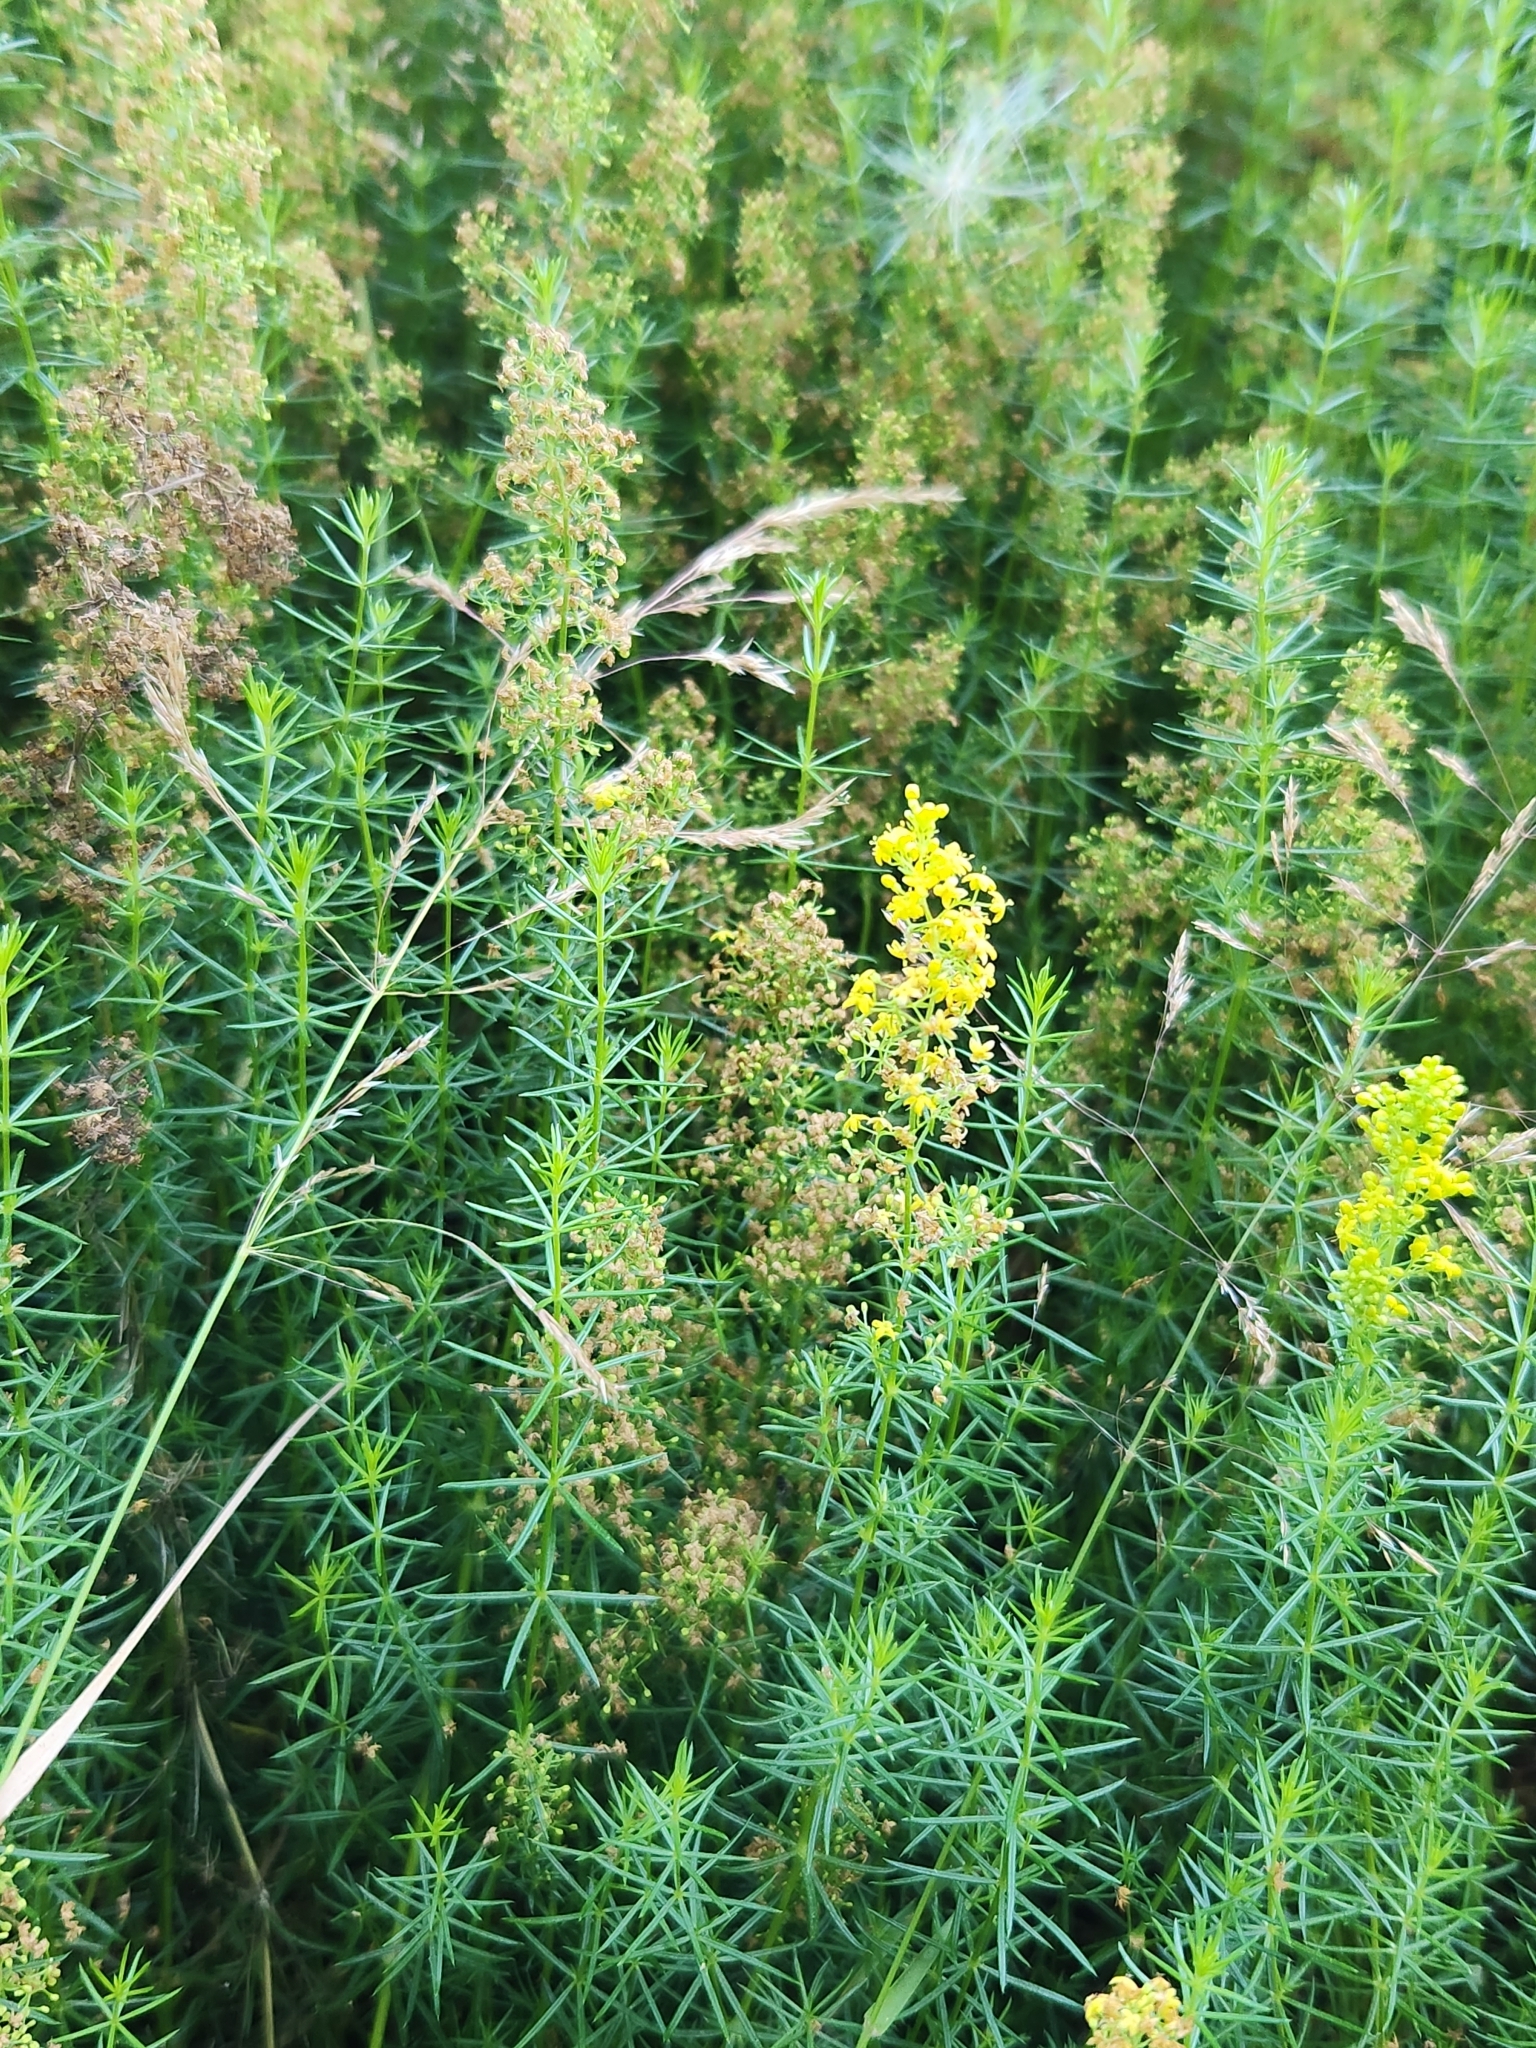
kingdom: Plantae
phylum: Tracheophyta
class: Magnoliopsida
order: Gentianales
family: Rubiaceae
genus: Galium
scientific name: Galium verum
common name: Lady's bedstraw
